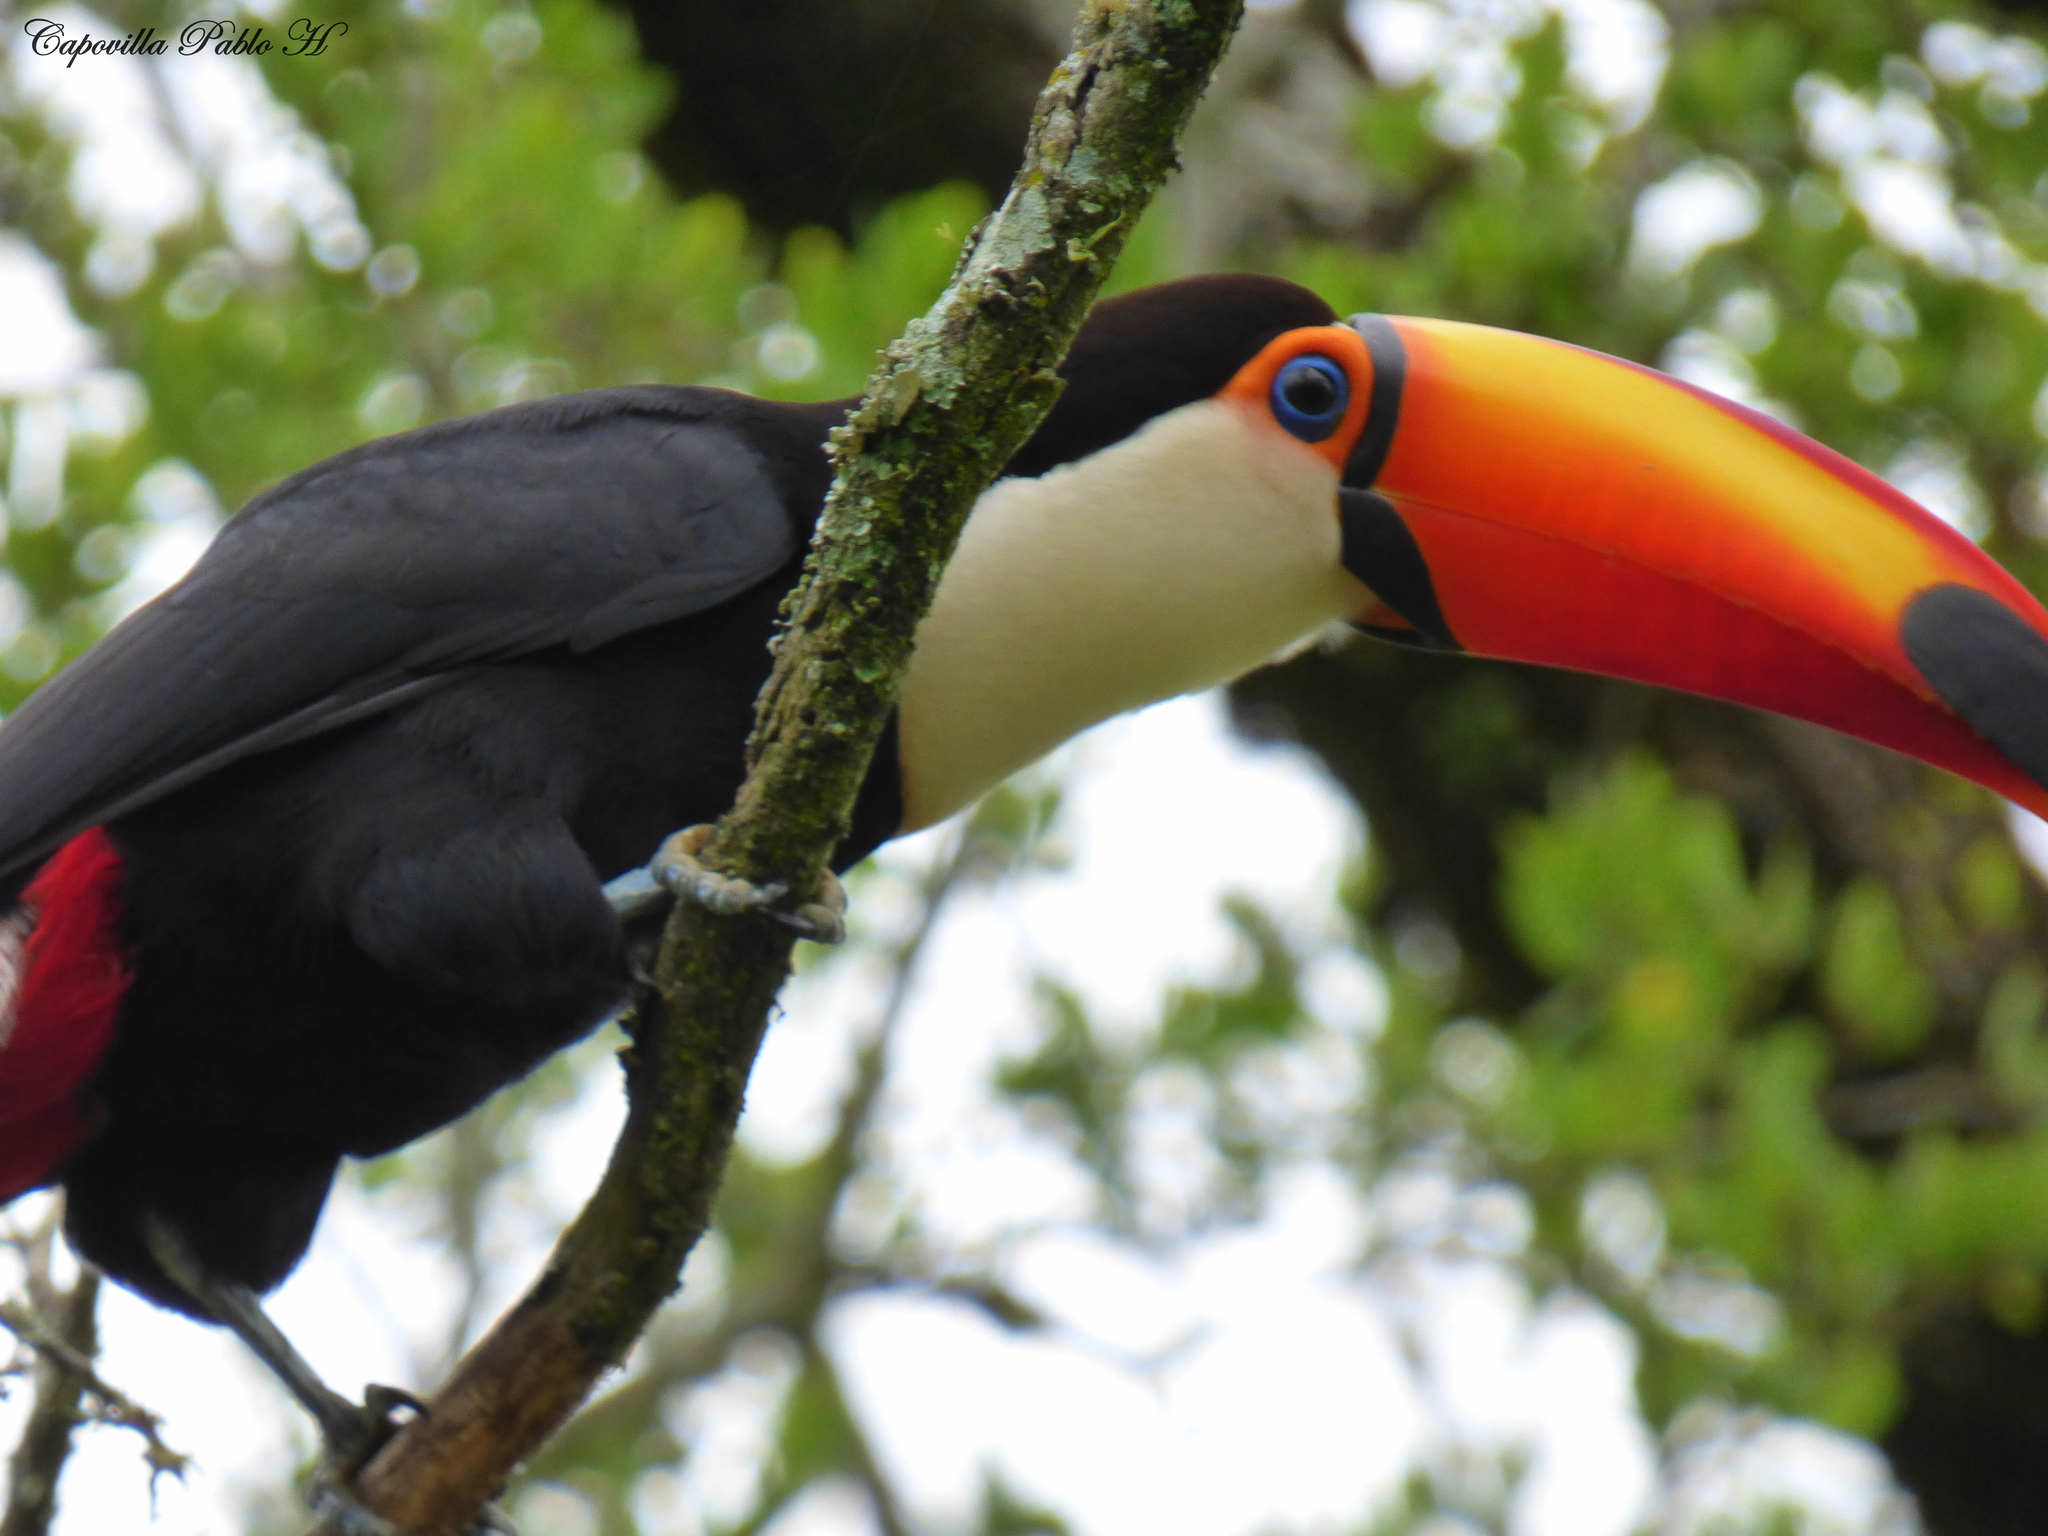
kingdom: Animalia
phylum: Chordata
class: Aves
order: Piciformes
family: Ramphastidae
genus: Ramphastos
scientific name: Ramphastos toco
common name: Toco toucan
